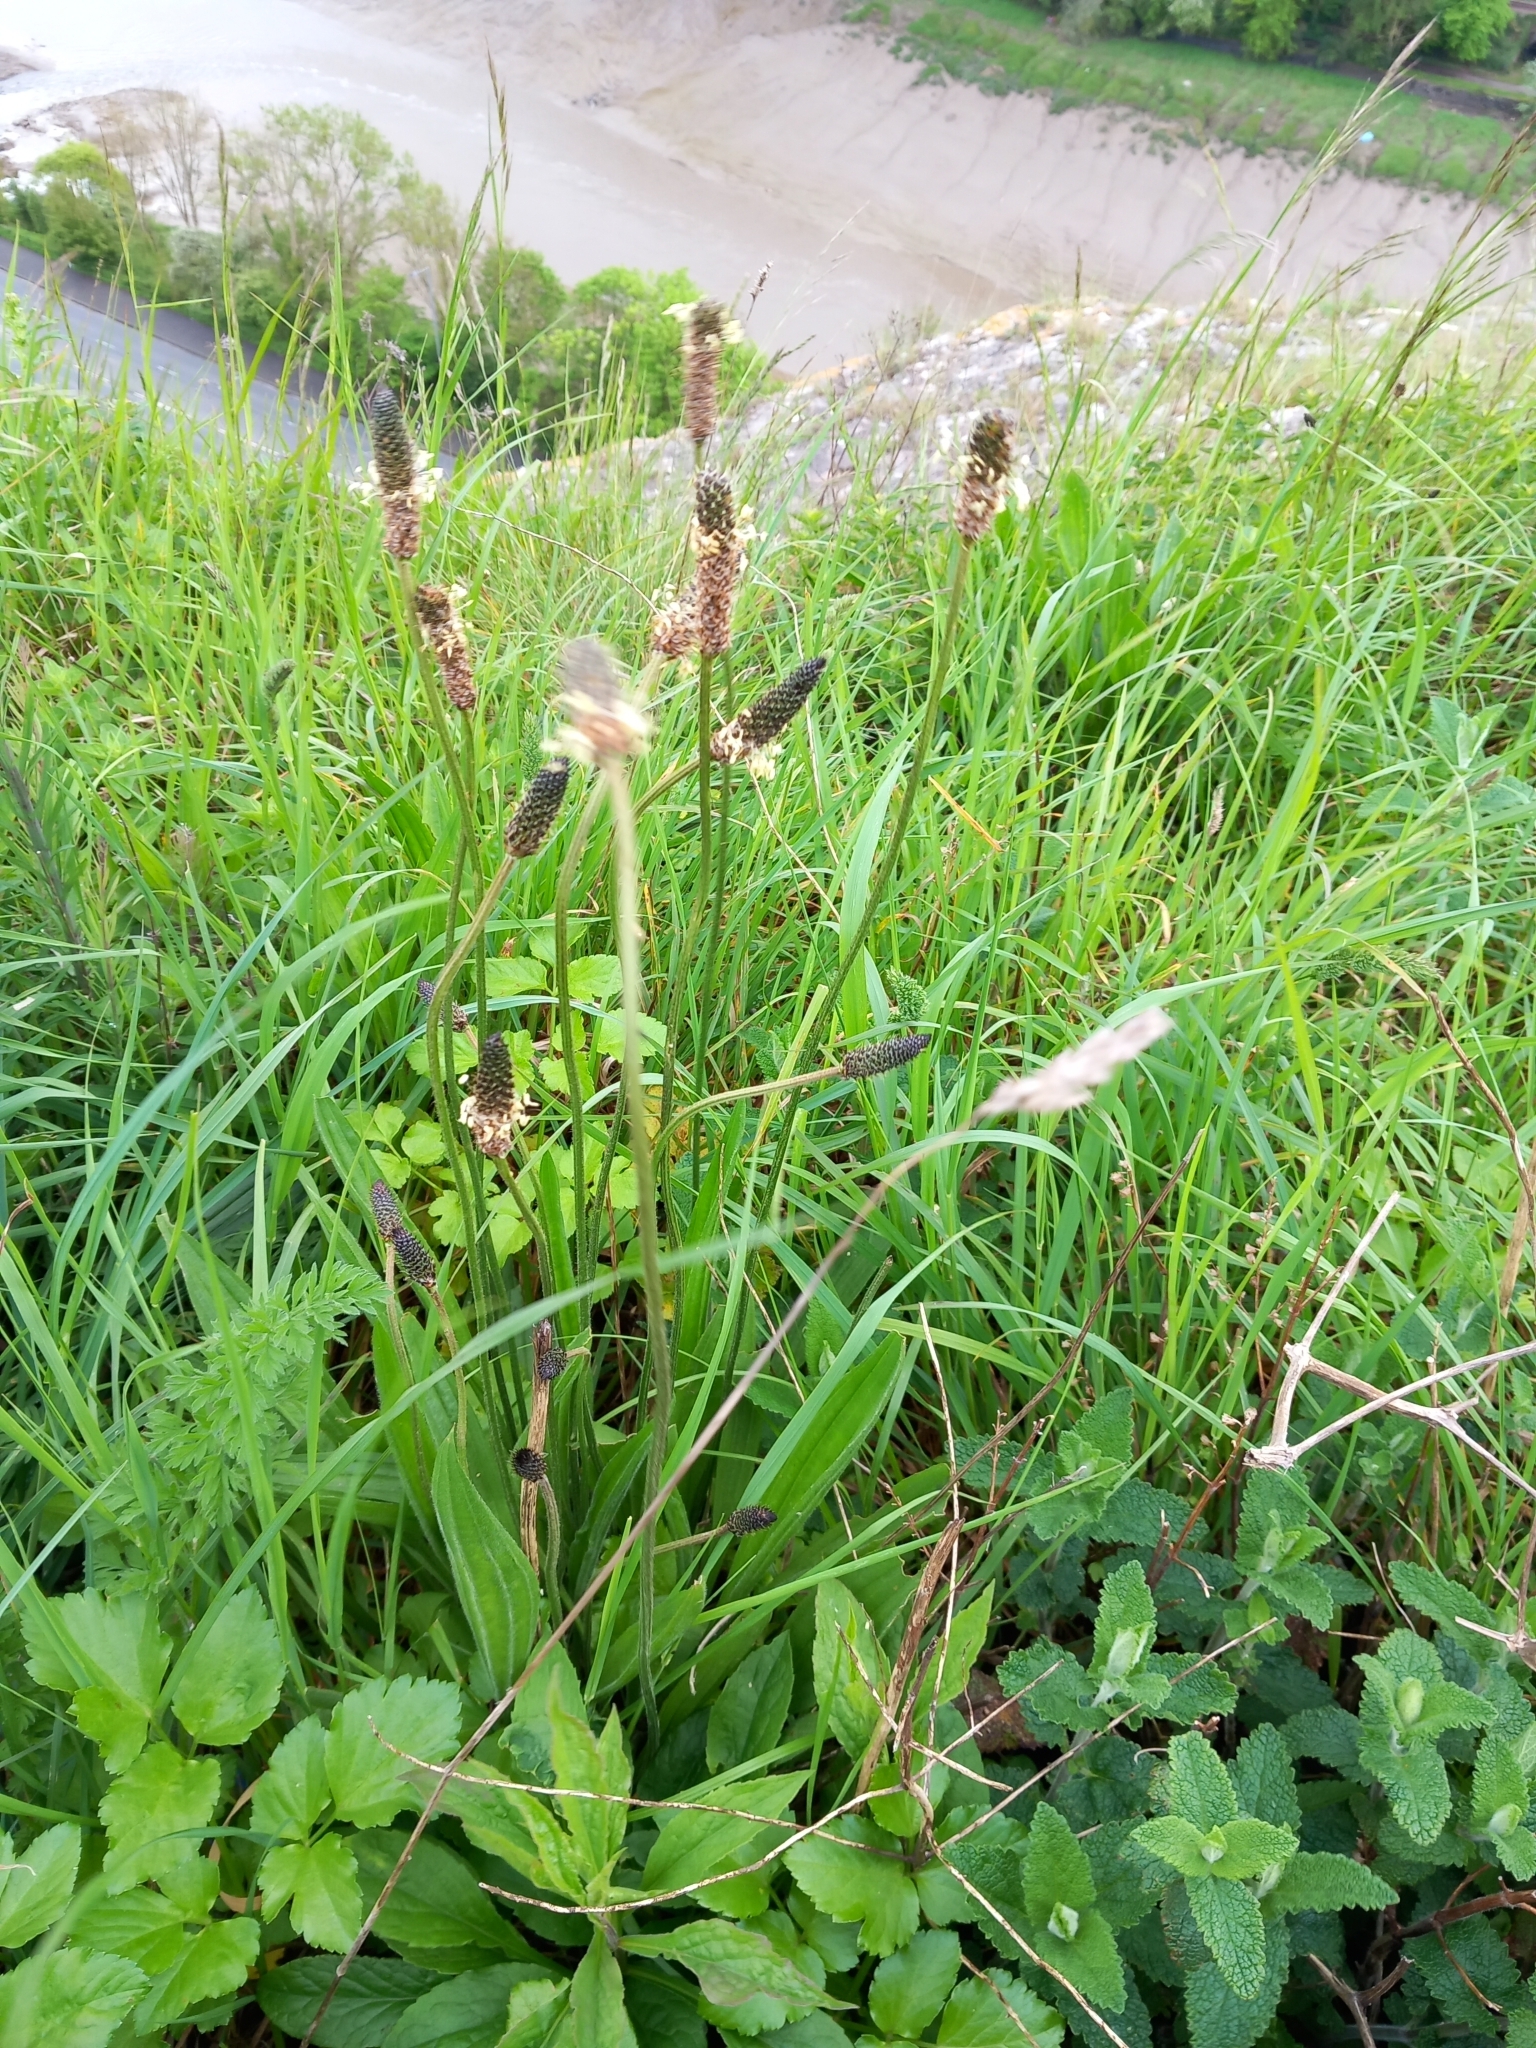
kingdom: Plantae
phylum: Tracheophyta
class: Magnoliopsida
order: Lamiales
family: Plantaginaceae
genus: Plantago
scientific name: Plantago lanceolata
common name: Ribwort plantain
